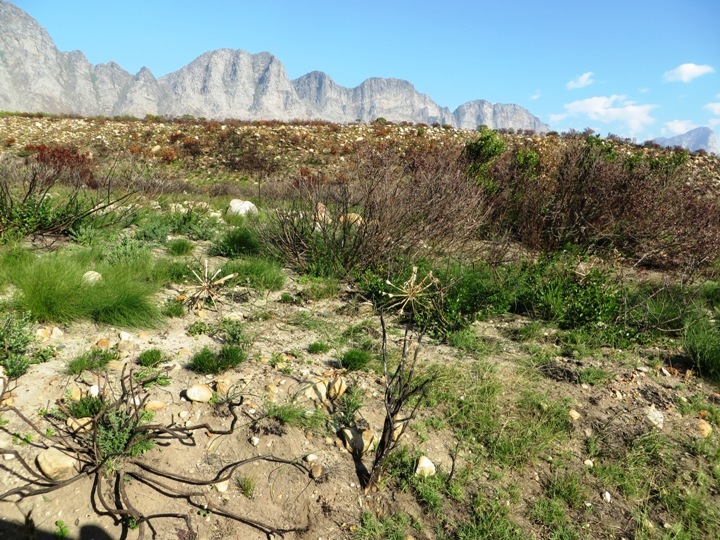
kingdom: Plantae
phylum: Tracheophyta
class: Liliopsida
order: Asparagales
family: Amaryllidaceae
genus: Brunsvigia
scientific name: Brunsvigia orientalis
